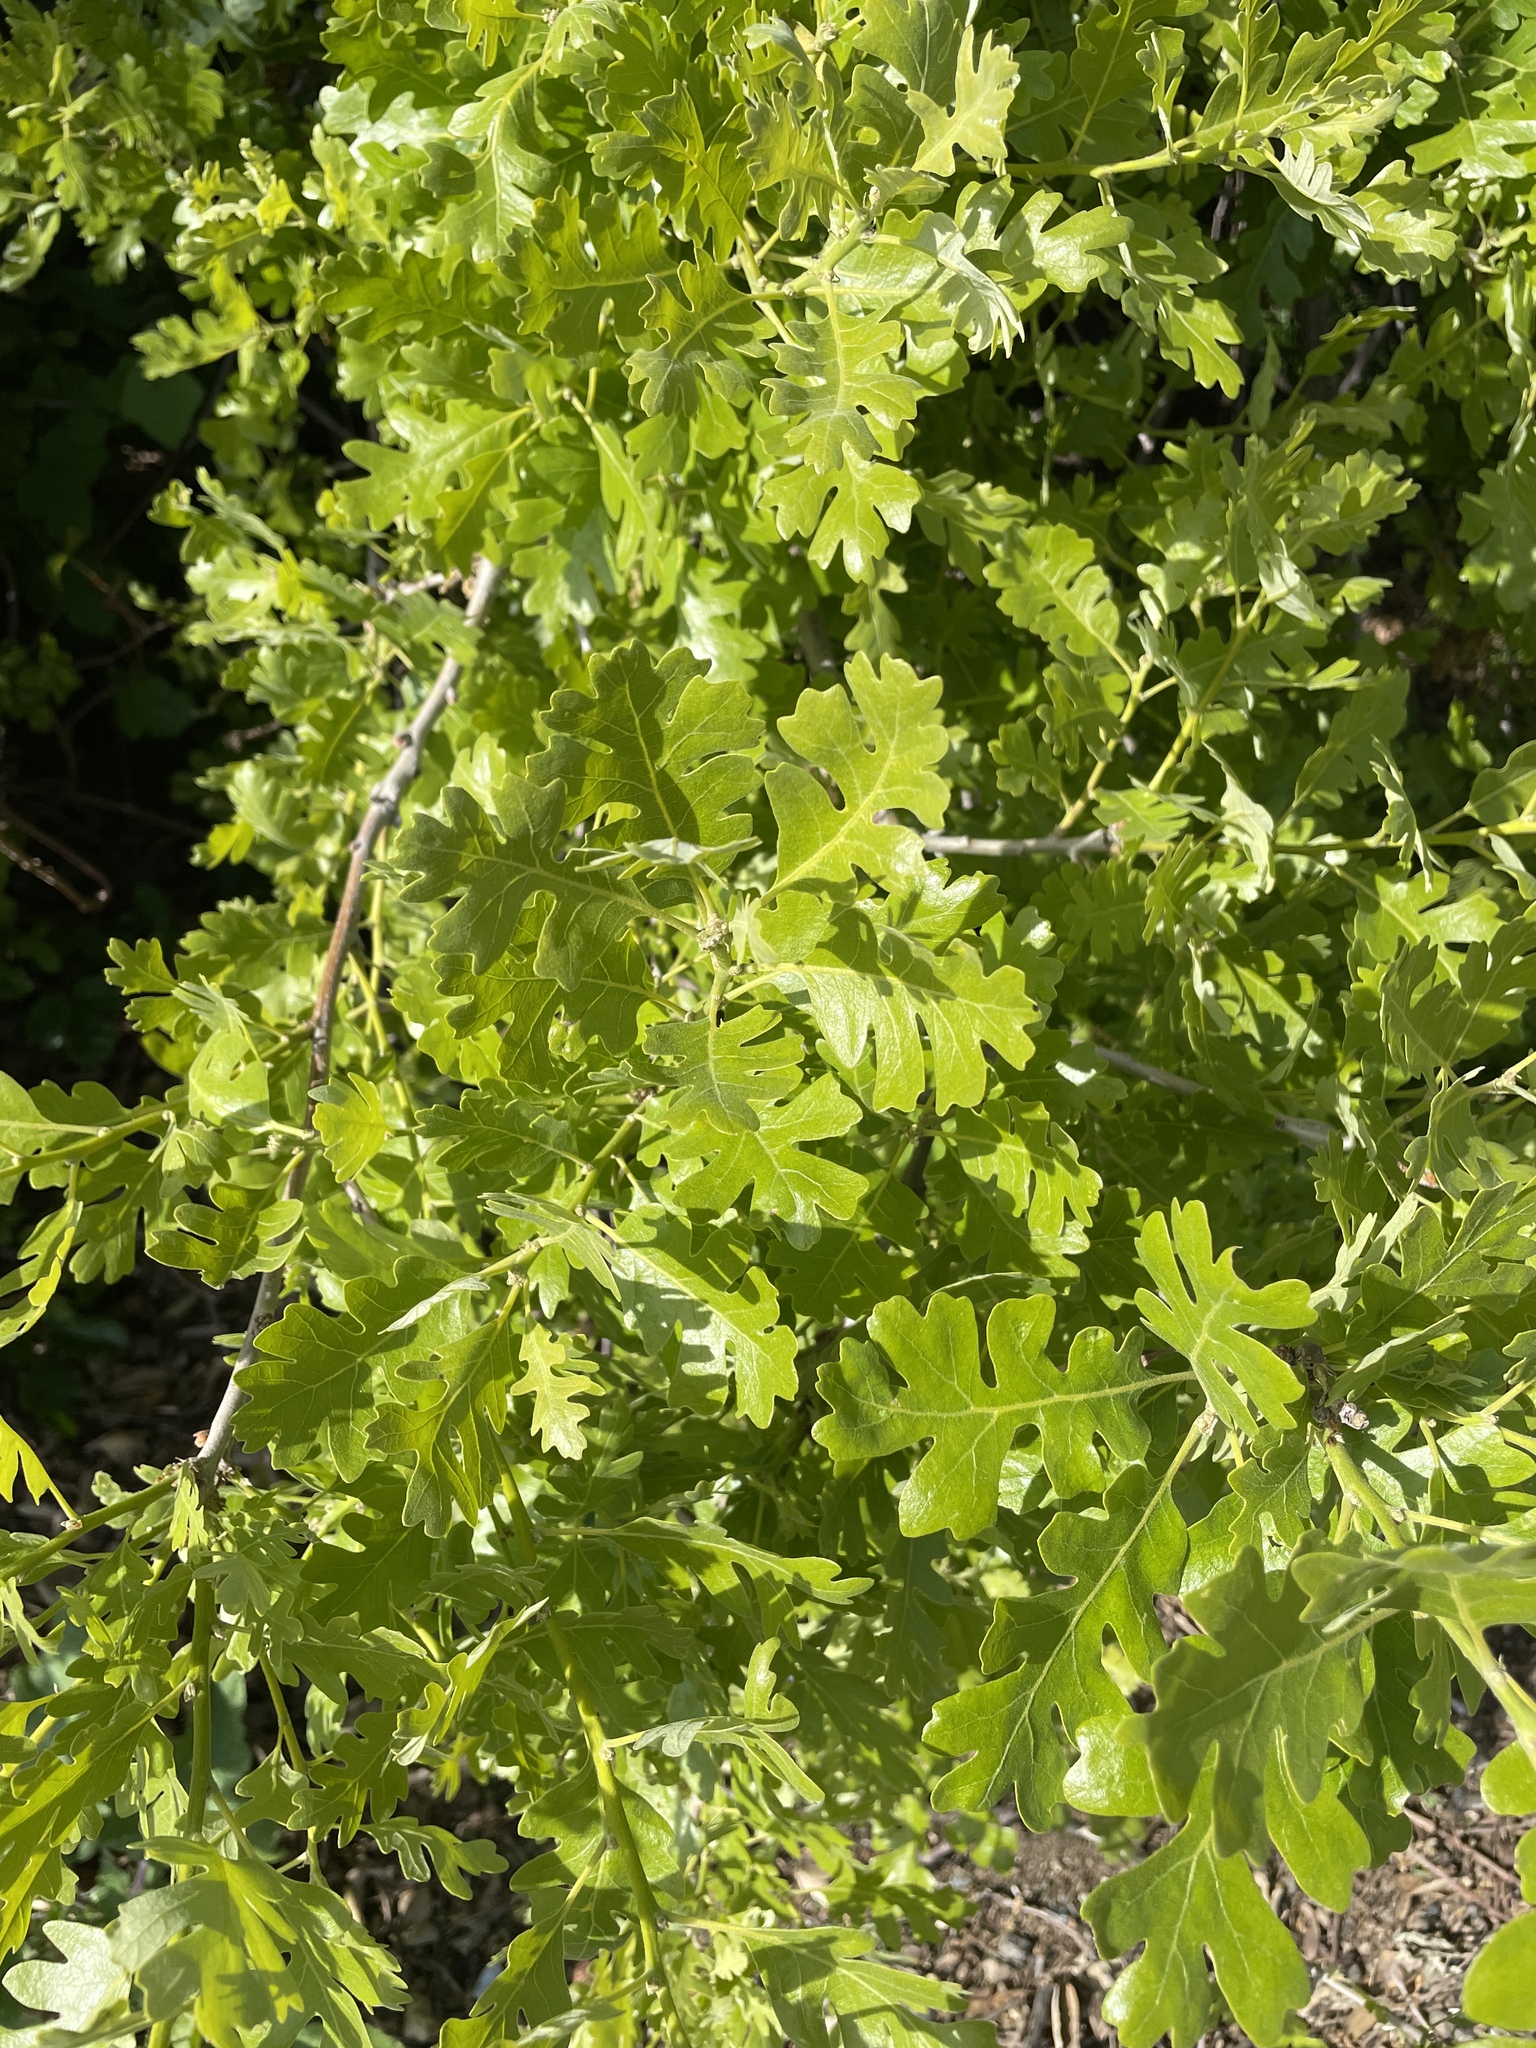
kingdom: Plantae
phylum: Tracheophyta
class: Magnoliopsida
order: Fagales
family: Fagaceae
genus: Quercus
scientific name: Quercus lobata
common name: Valley oak
